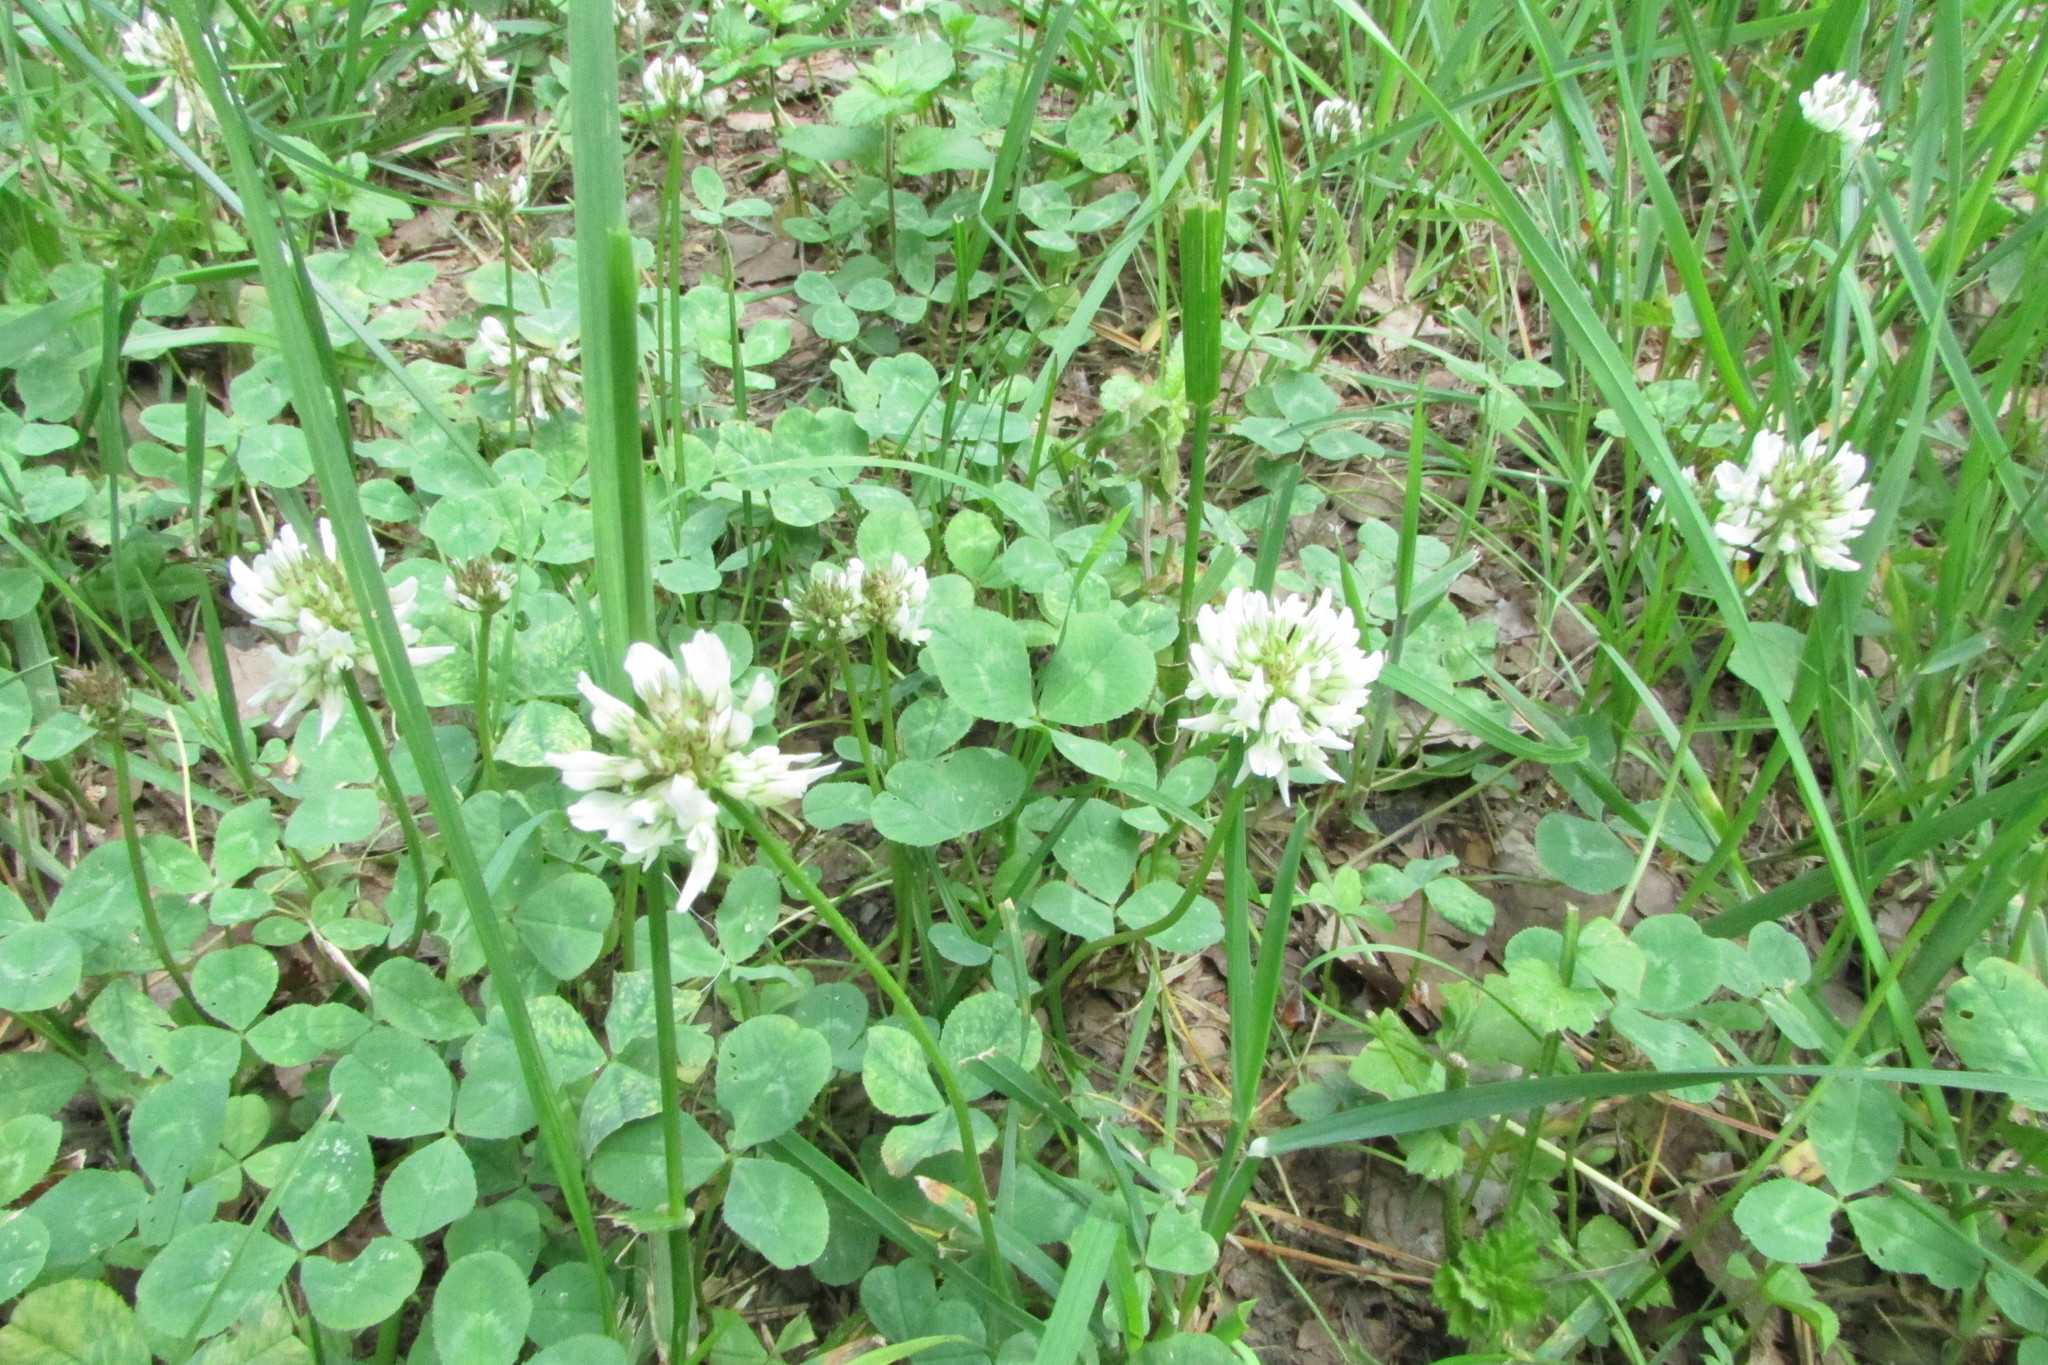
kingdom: Plantae
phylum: Tracheophyta
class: Magnoliopsida
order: Fabales
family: Fabaceae
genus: Trifolium
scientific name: Trifolium repens
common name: White clover
